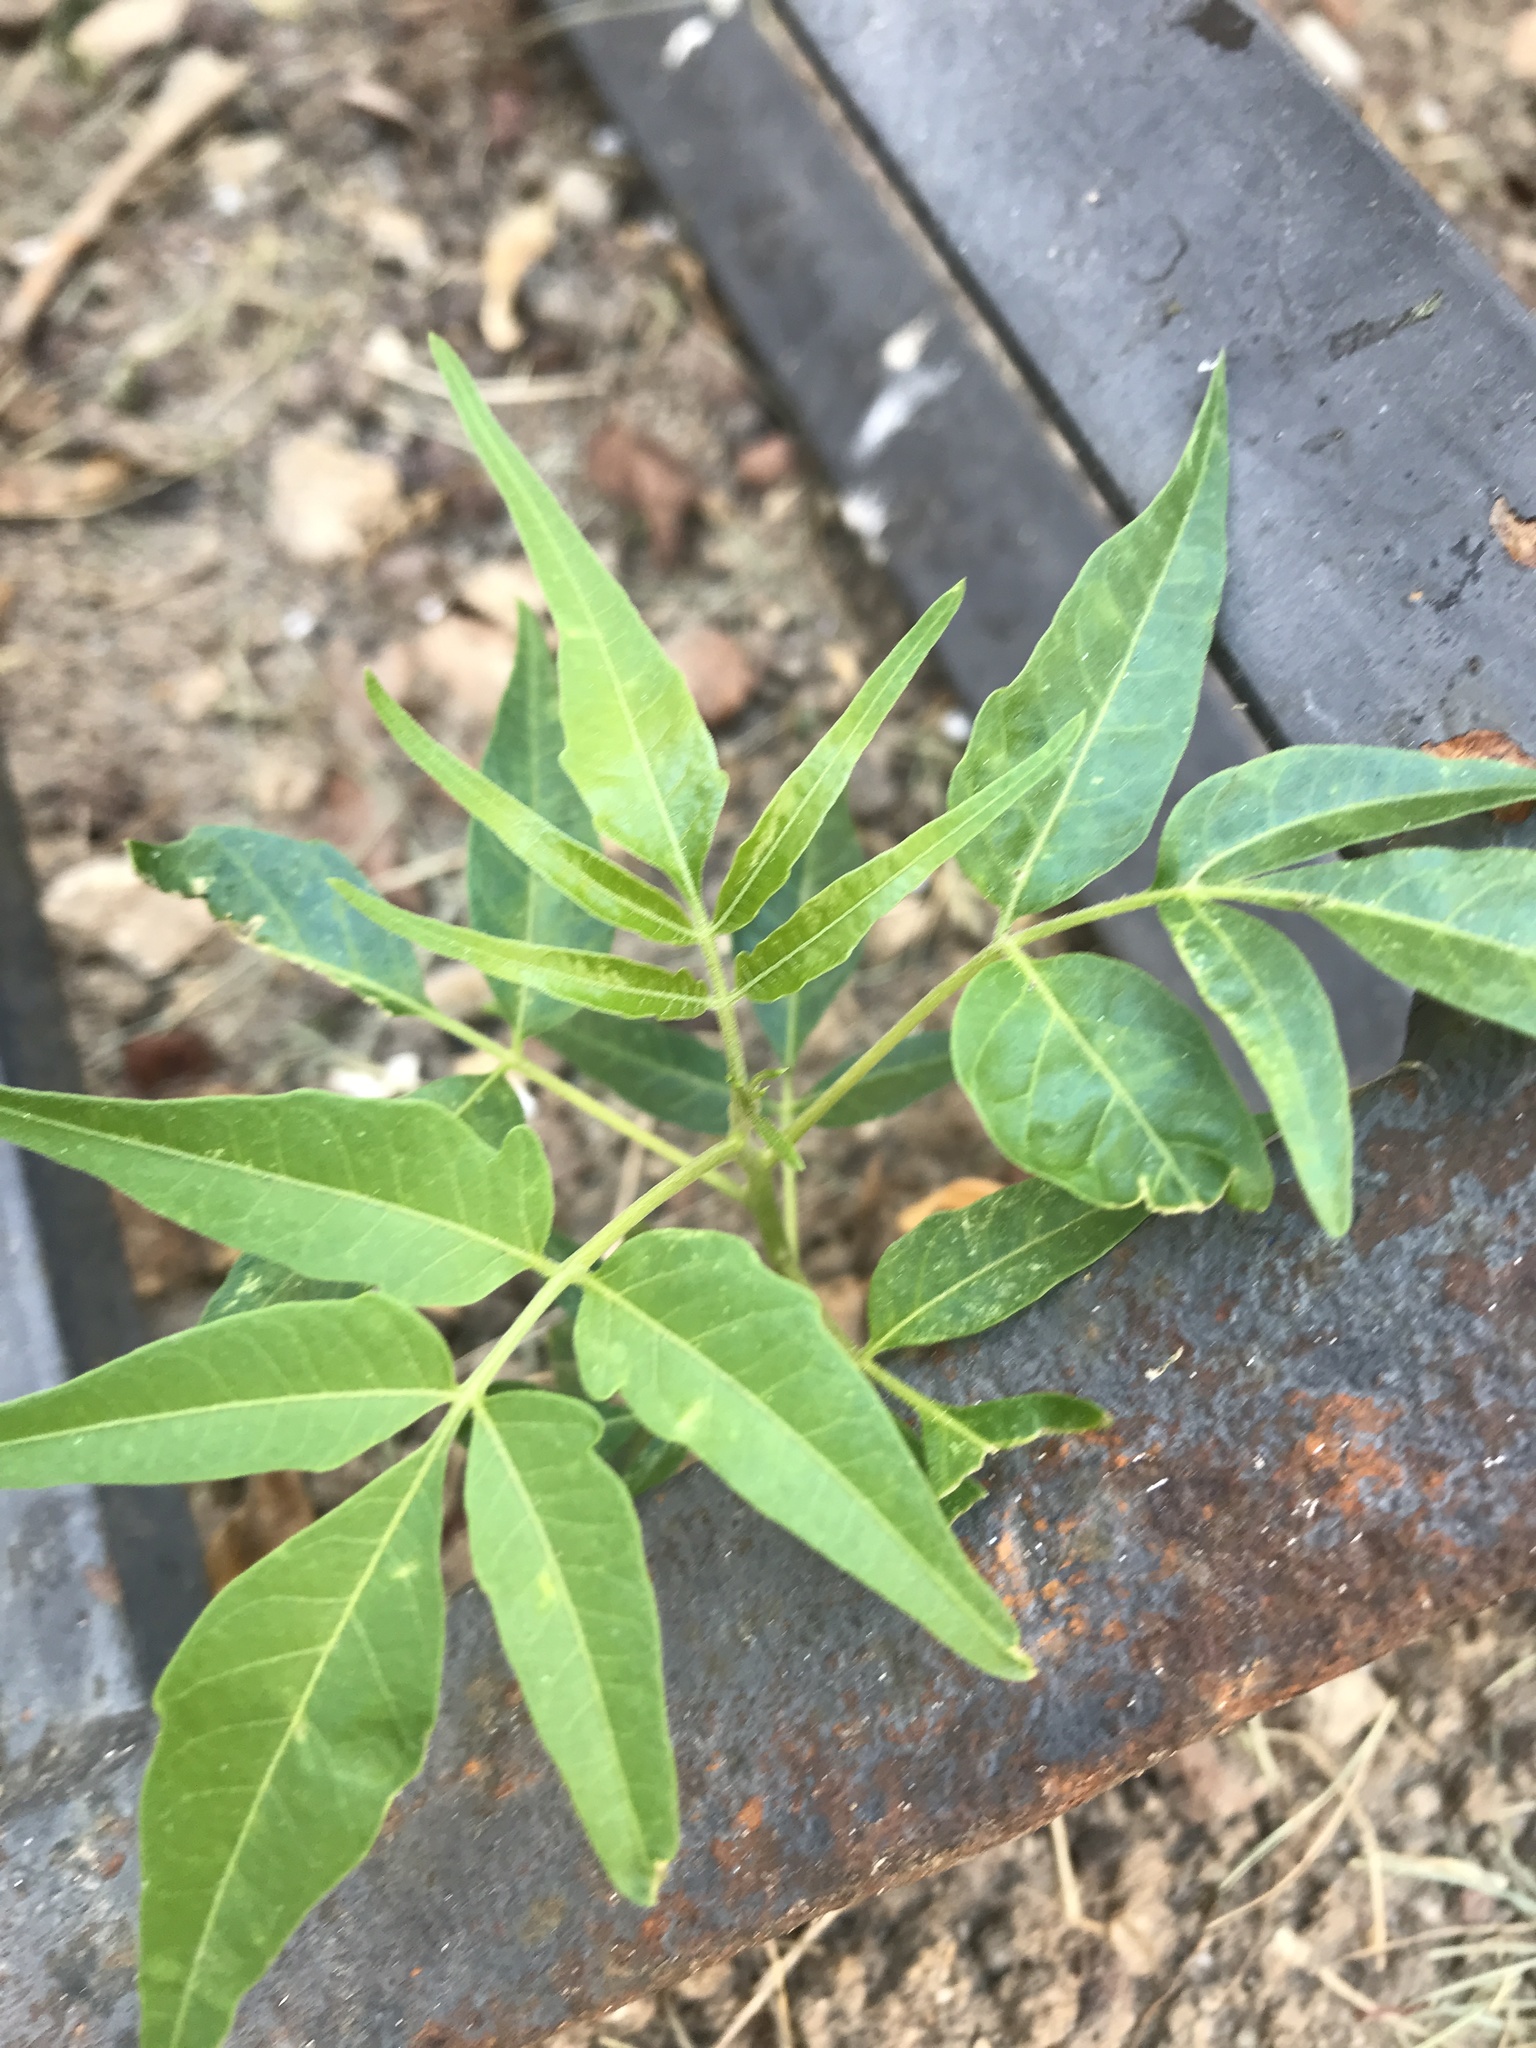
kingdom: Plantae
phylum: Tracheophyta
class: Magnoliopsida
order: Sapindales
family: Simaroubaceae
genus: Ailanthus
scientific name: Ailanthus altissima
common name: Tree-of-heaven
